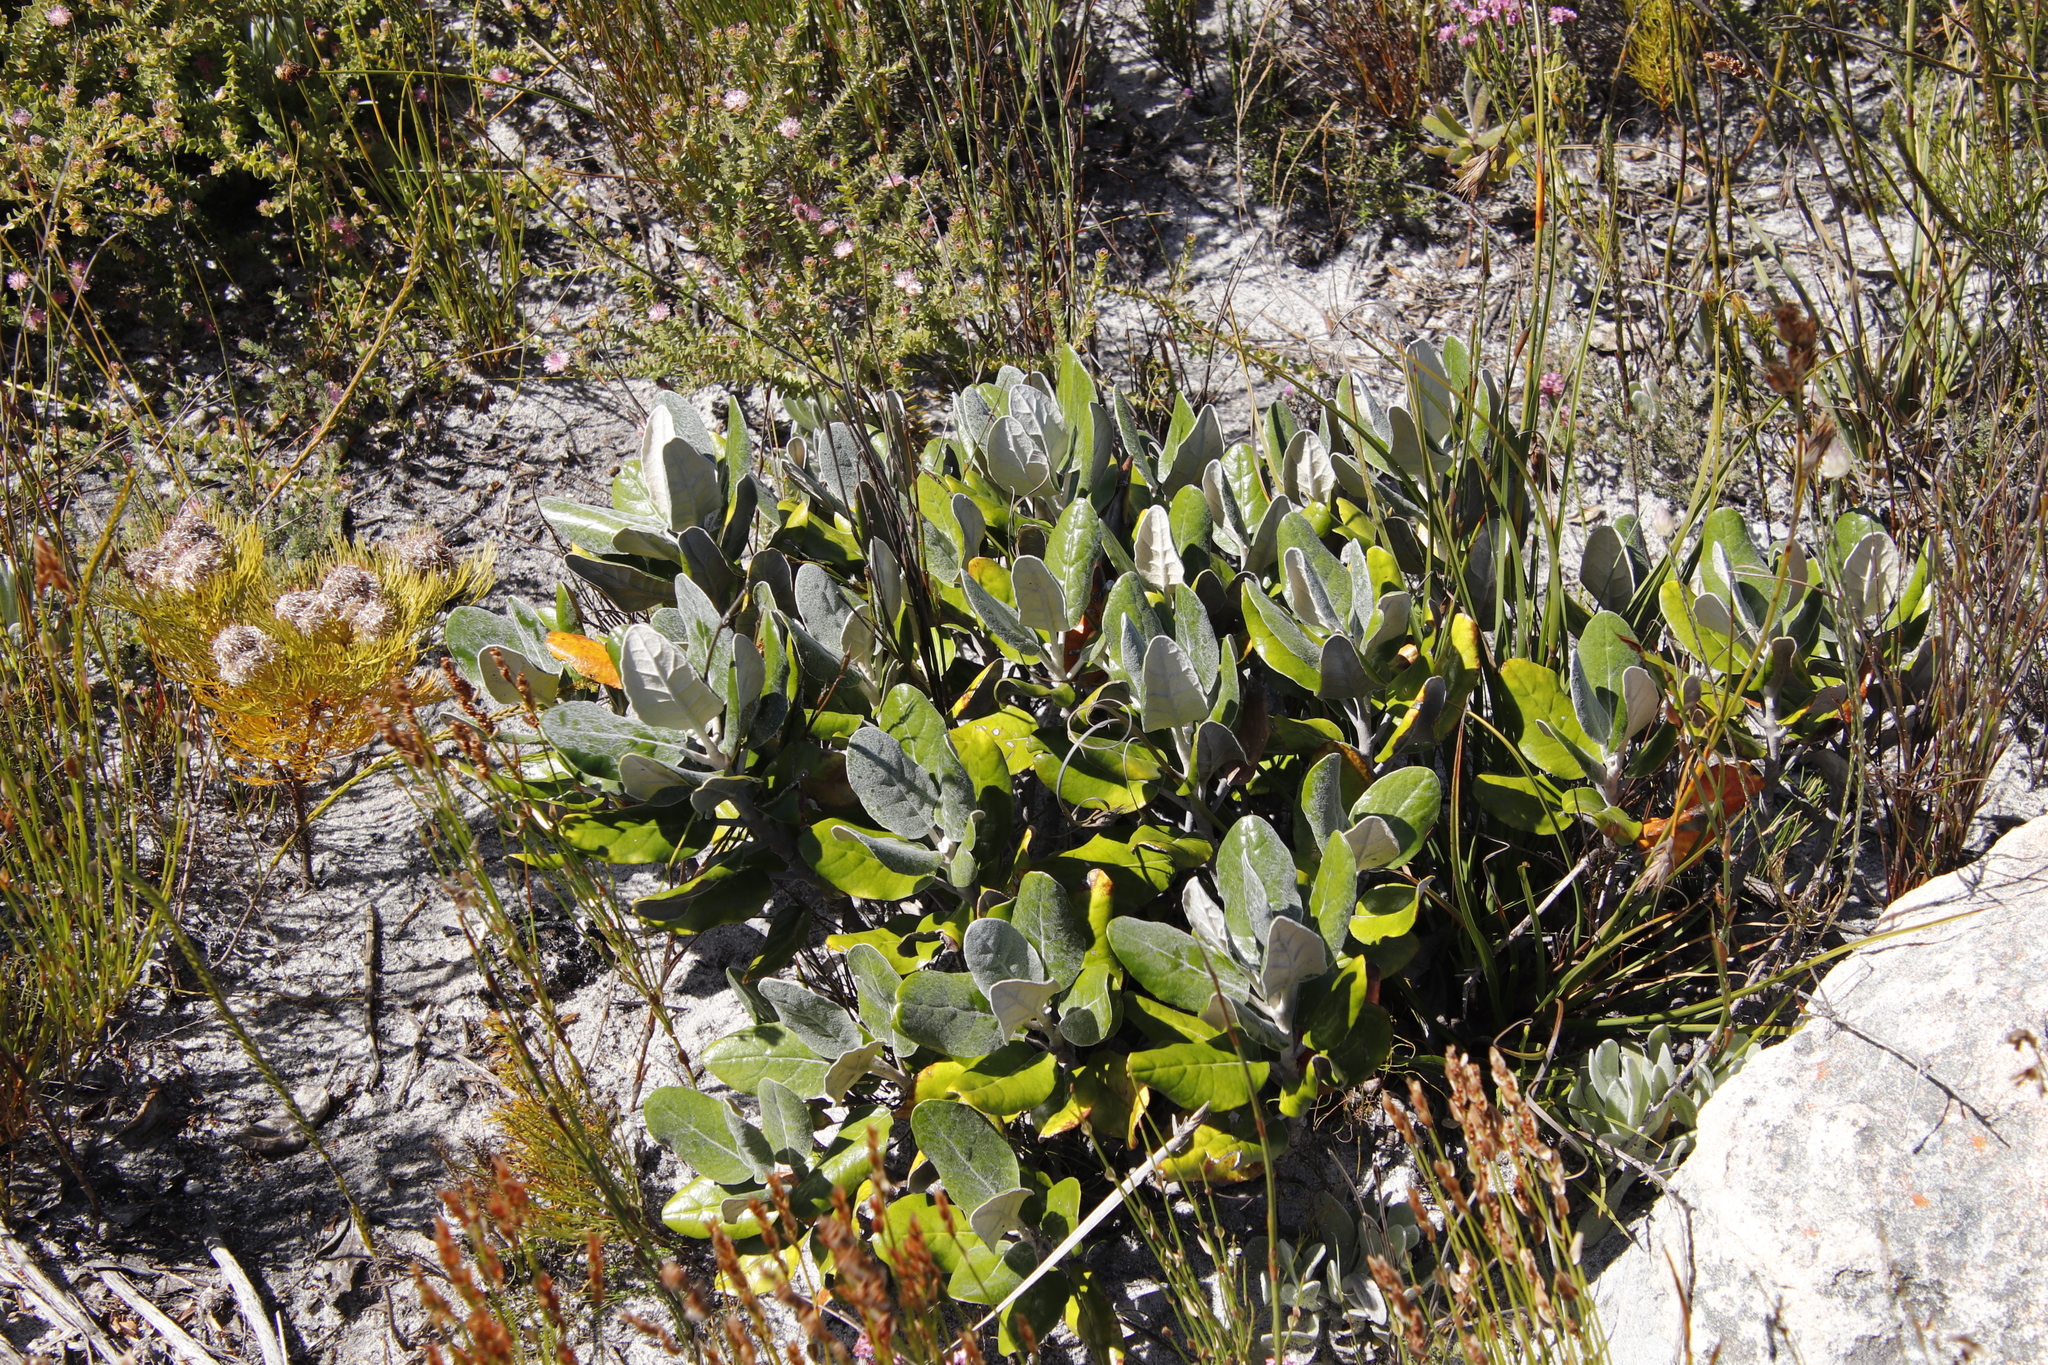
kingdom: Plantae
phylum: Tracheophyta
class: Magnoliopsida
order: Asterales
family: Asteraceae
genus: Capelio
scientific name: Capelio tabularis
